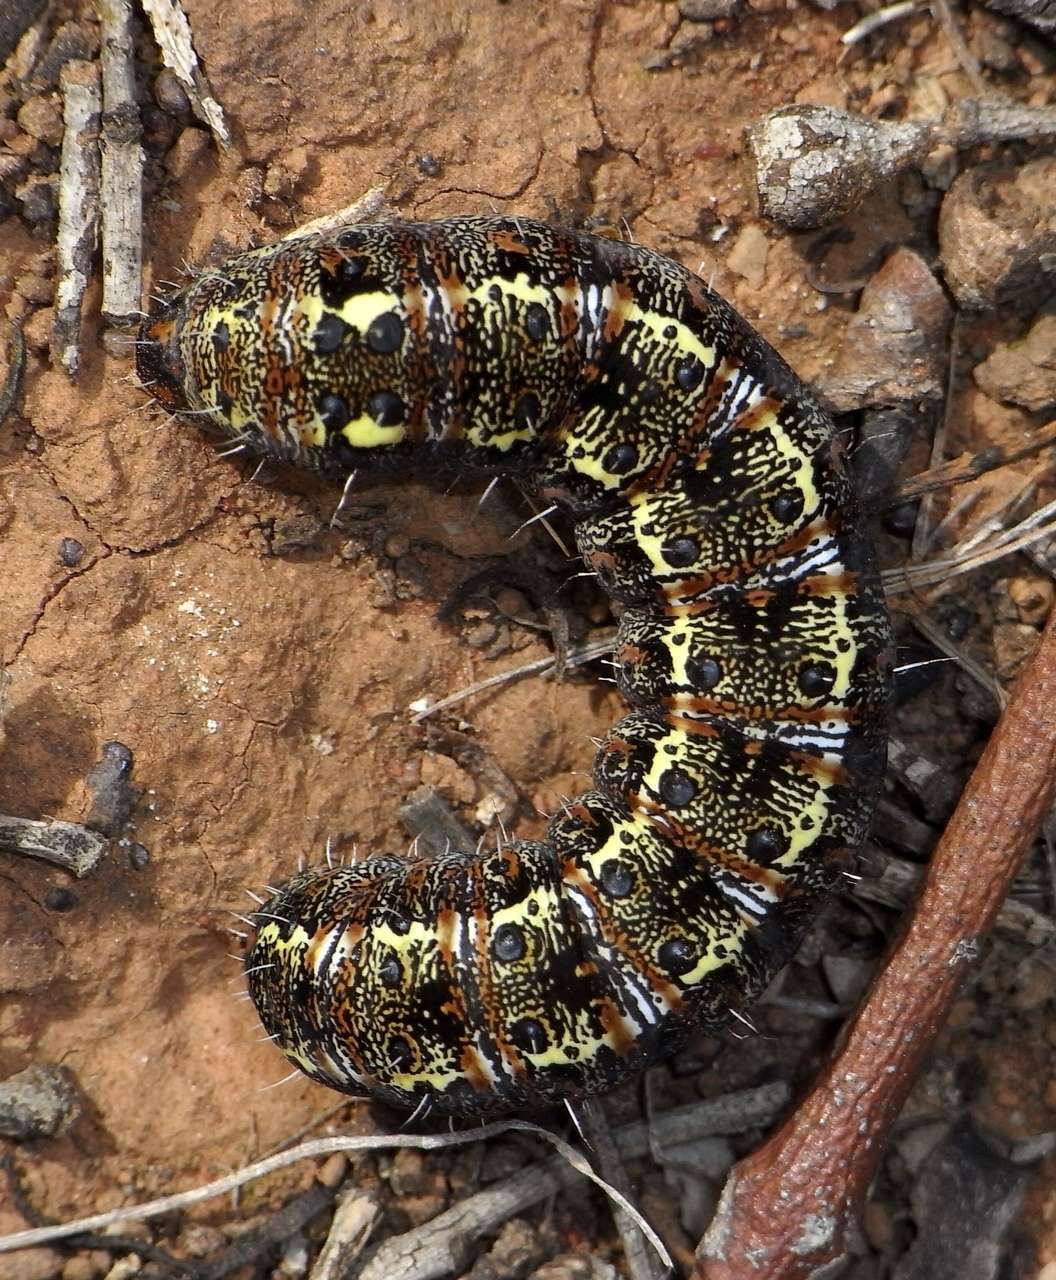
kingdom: Animalia
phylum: Arthropoda
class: Insecta
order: Lepidoptera
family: Noctuidae
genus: Apina
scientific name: Apina callisto
